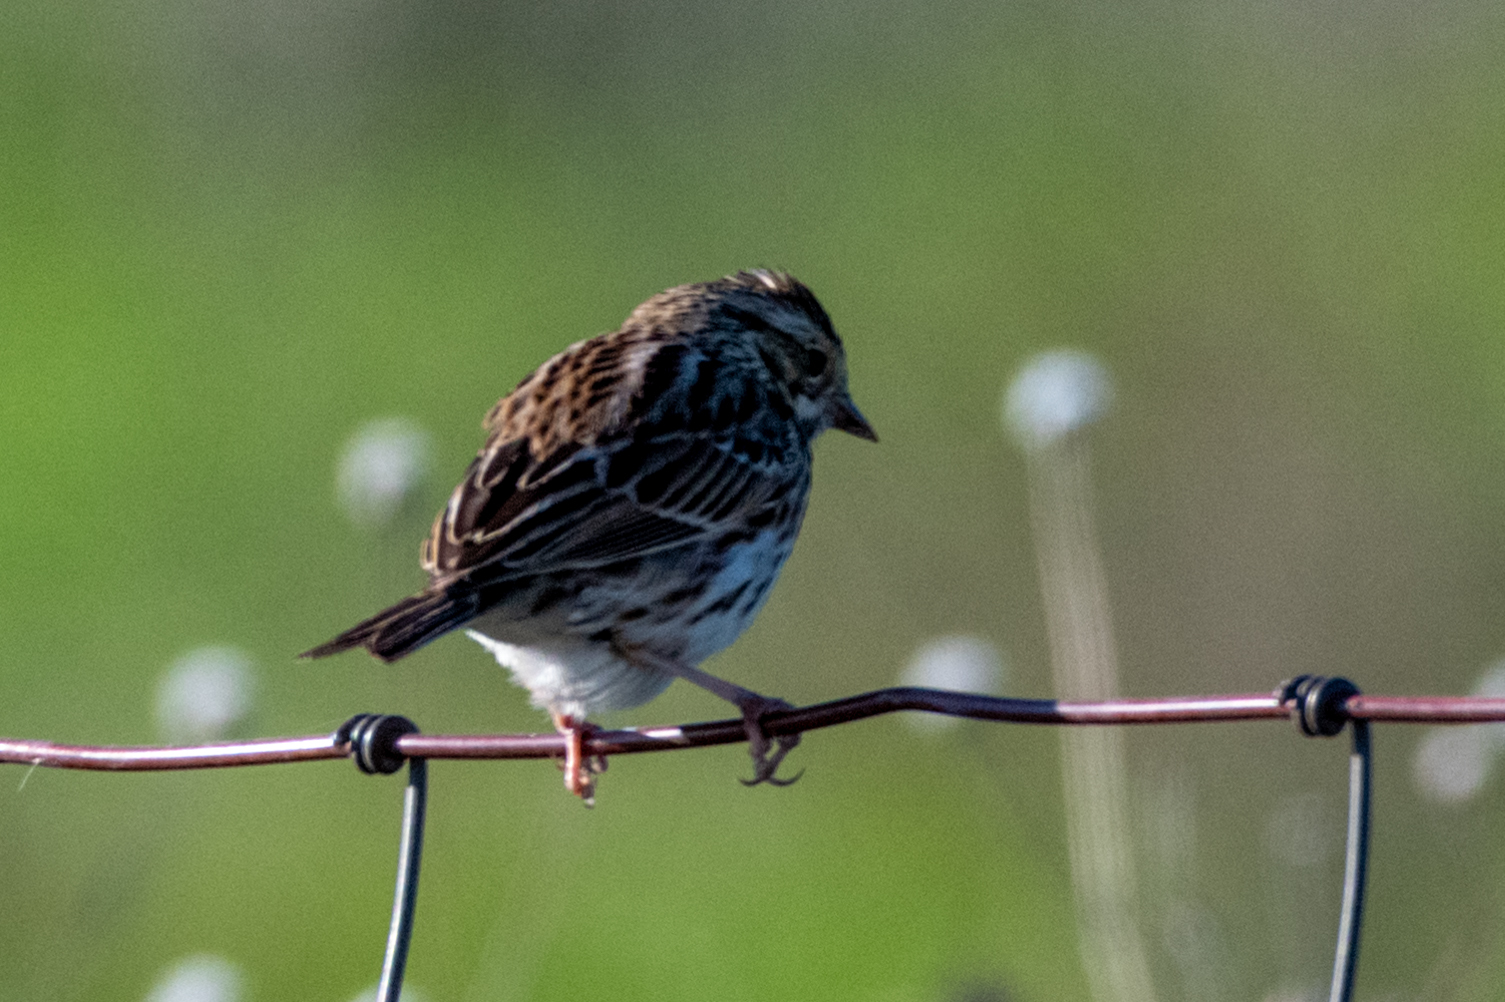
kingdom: Animalia
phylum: Chordata
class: Aves
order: Passeriformes
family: Passerellidae
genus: Passerculus
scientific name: Passerculus sandwichensis
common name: Savannah sparrow
